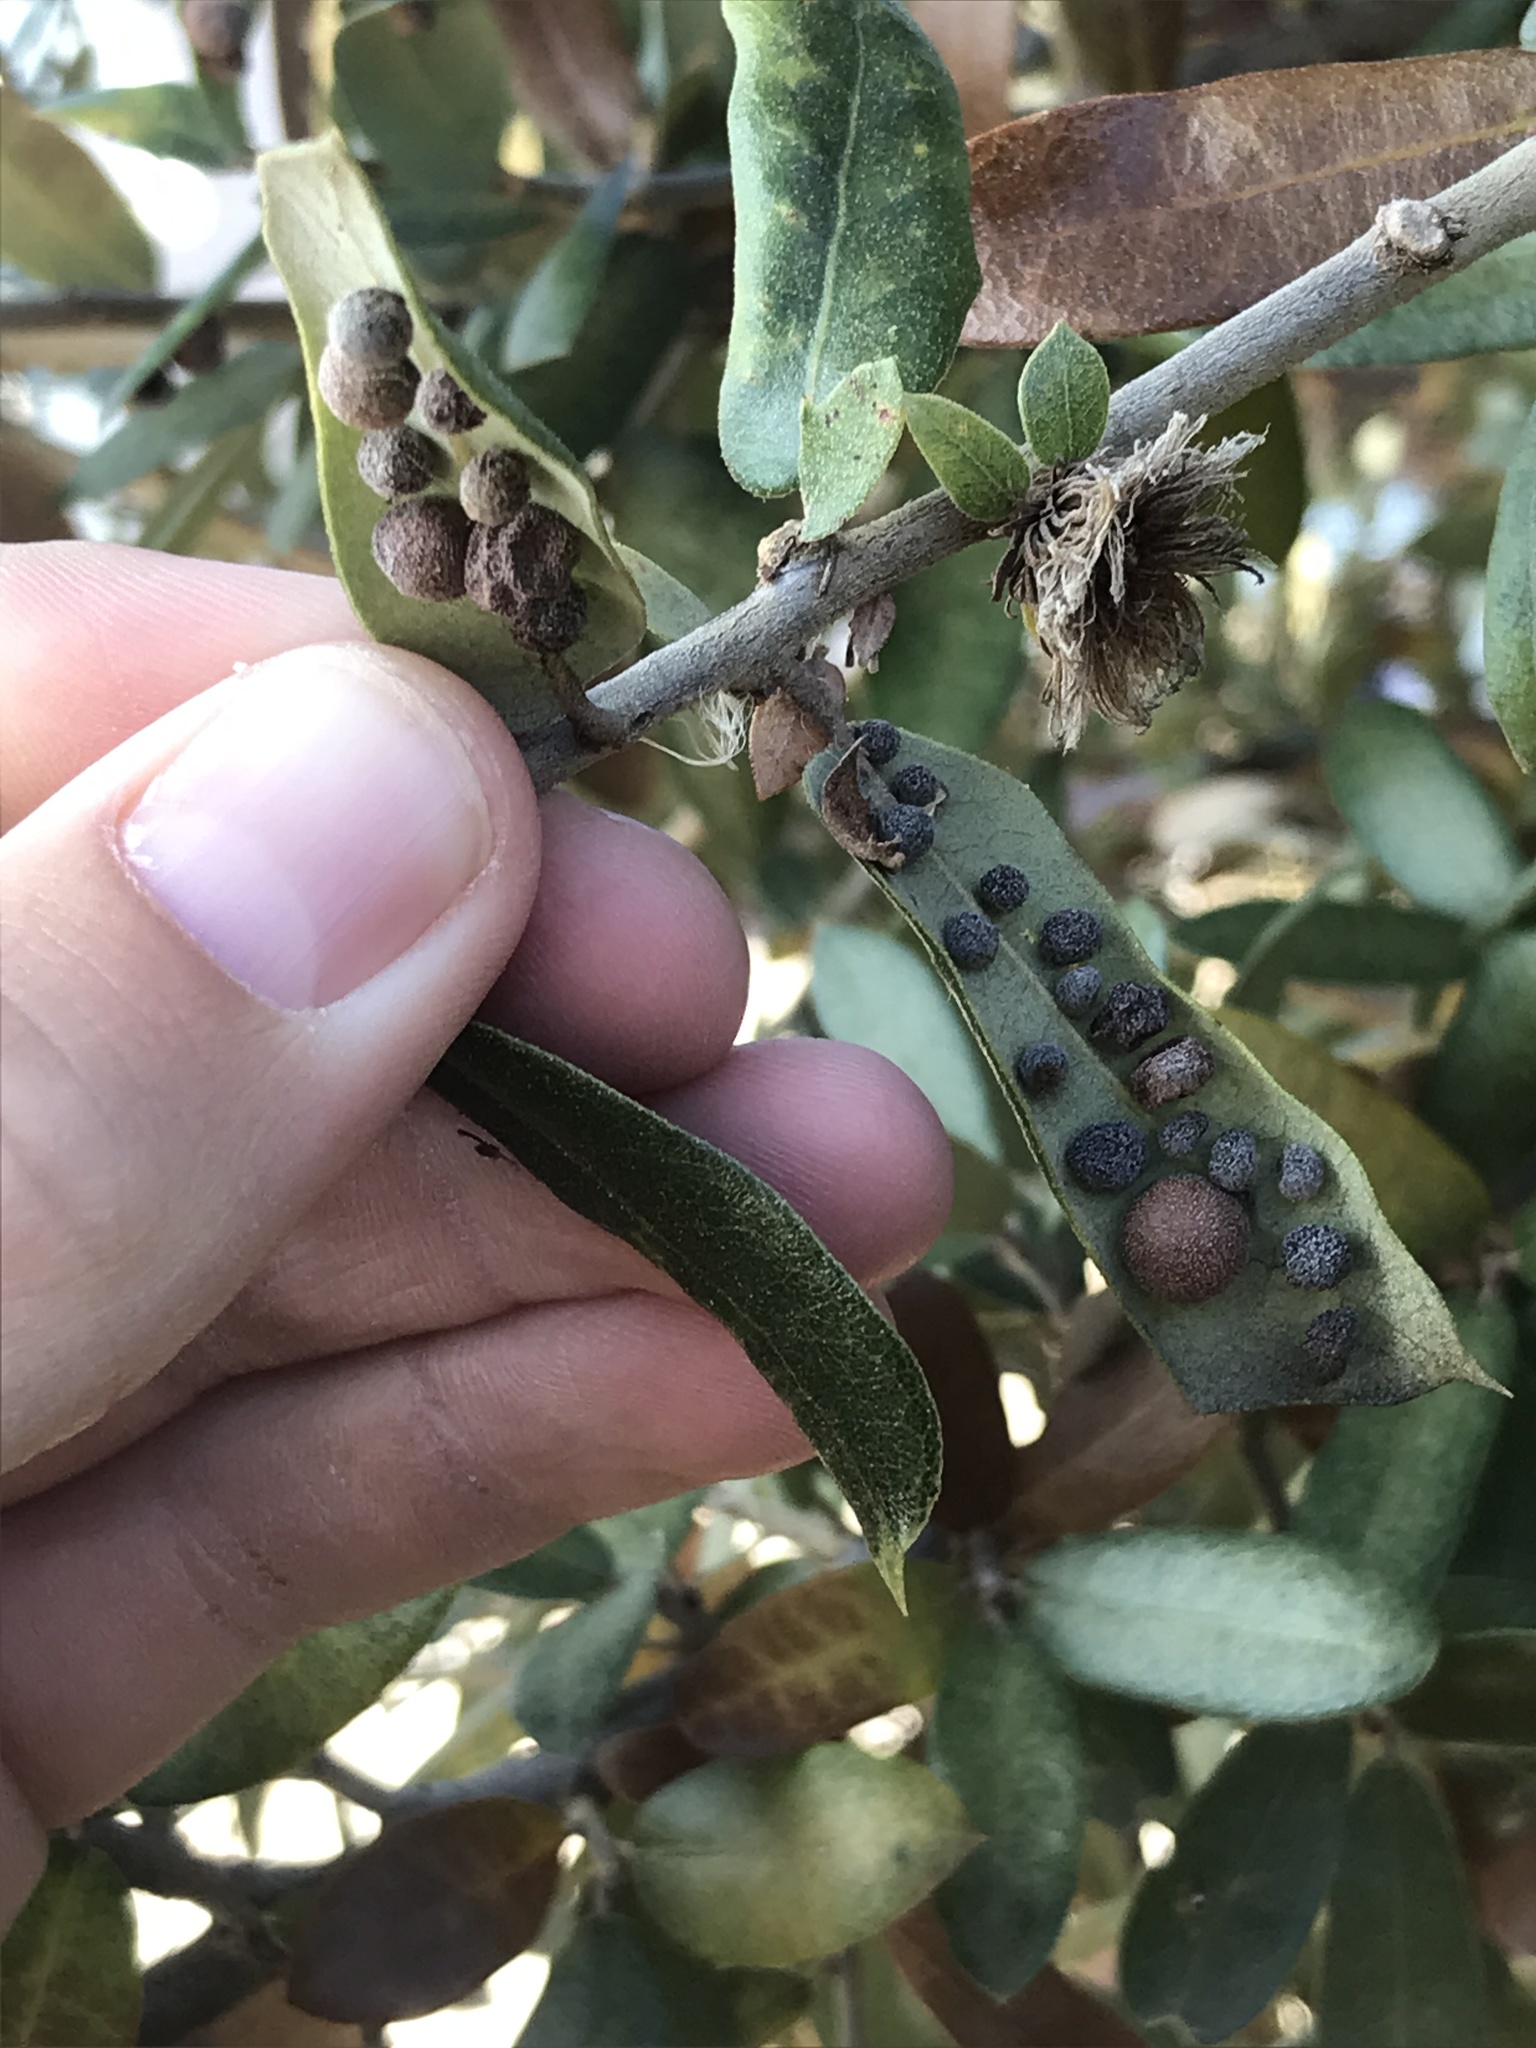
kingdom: Animalia
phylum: Arthropoda
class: Insecta
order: Hymenoptera
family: Cynipidae
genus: Belonocnema
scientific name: Belonocnema kinseyi
